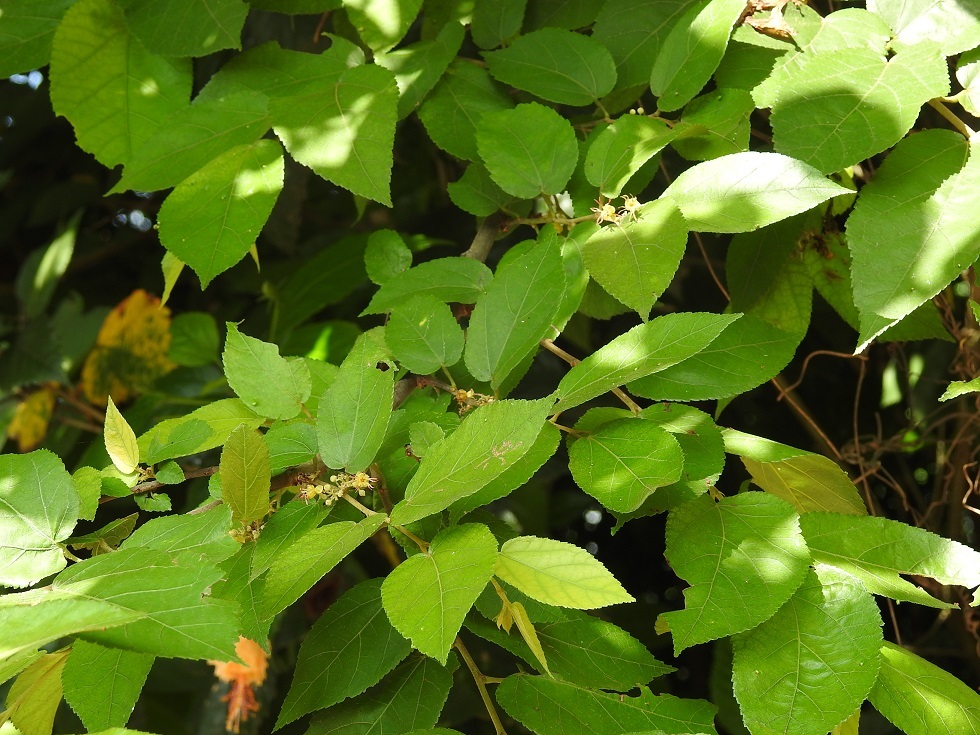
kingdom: Plantae
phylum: Tracheophyta
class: Magnoliopsida
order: Malvales
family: Malvaceae
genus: Guazuma
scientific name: Guazuma ulmifolia
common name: Bastard-cedar
